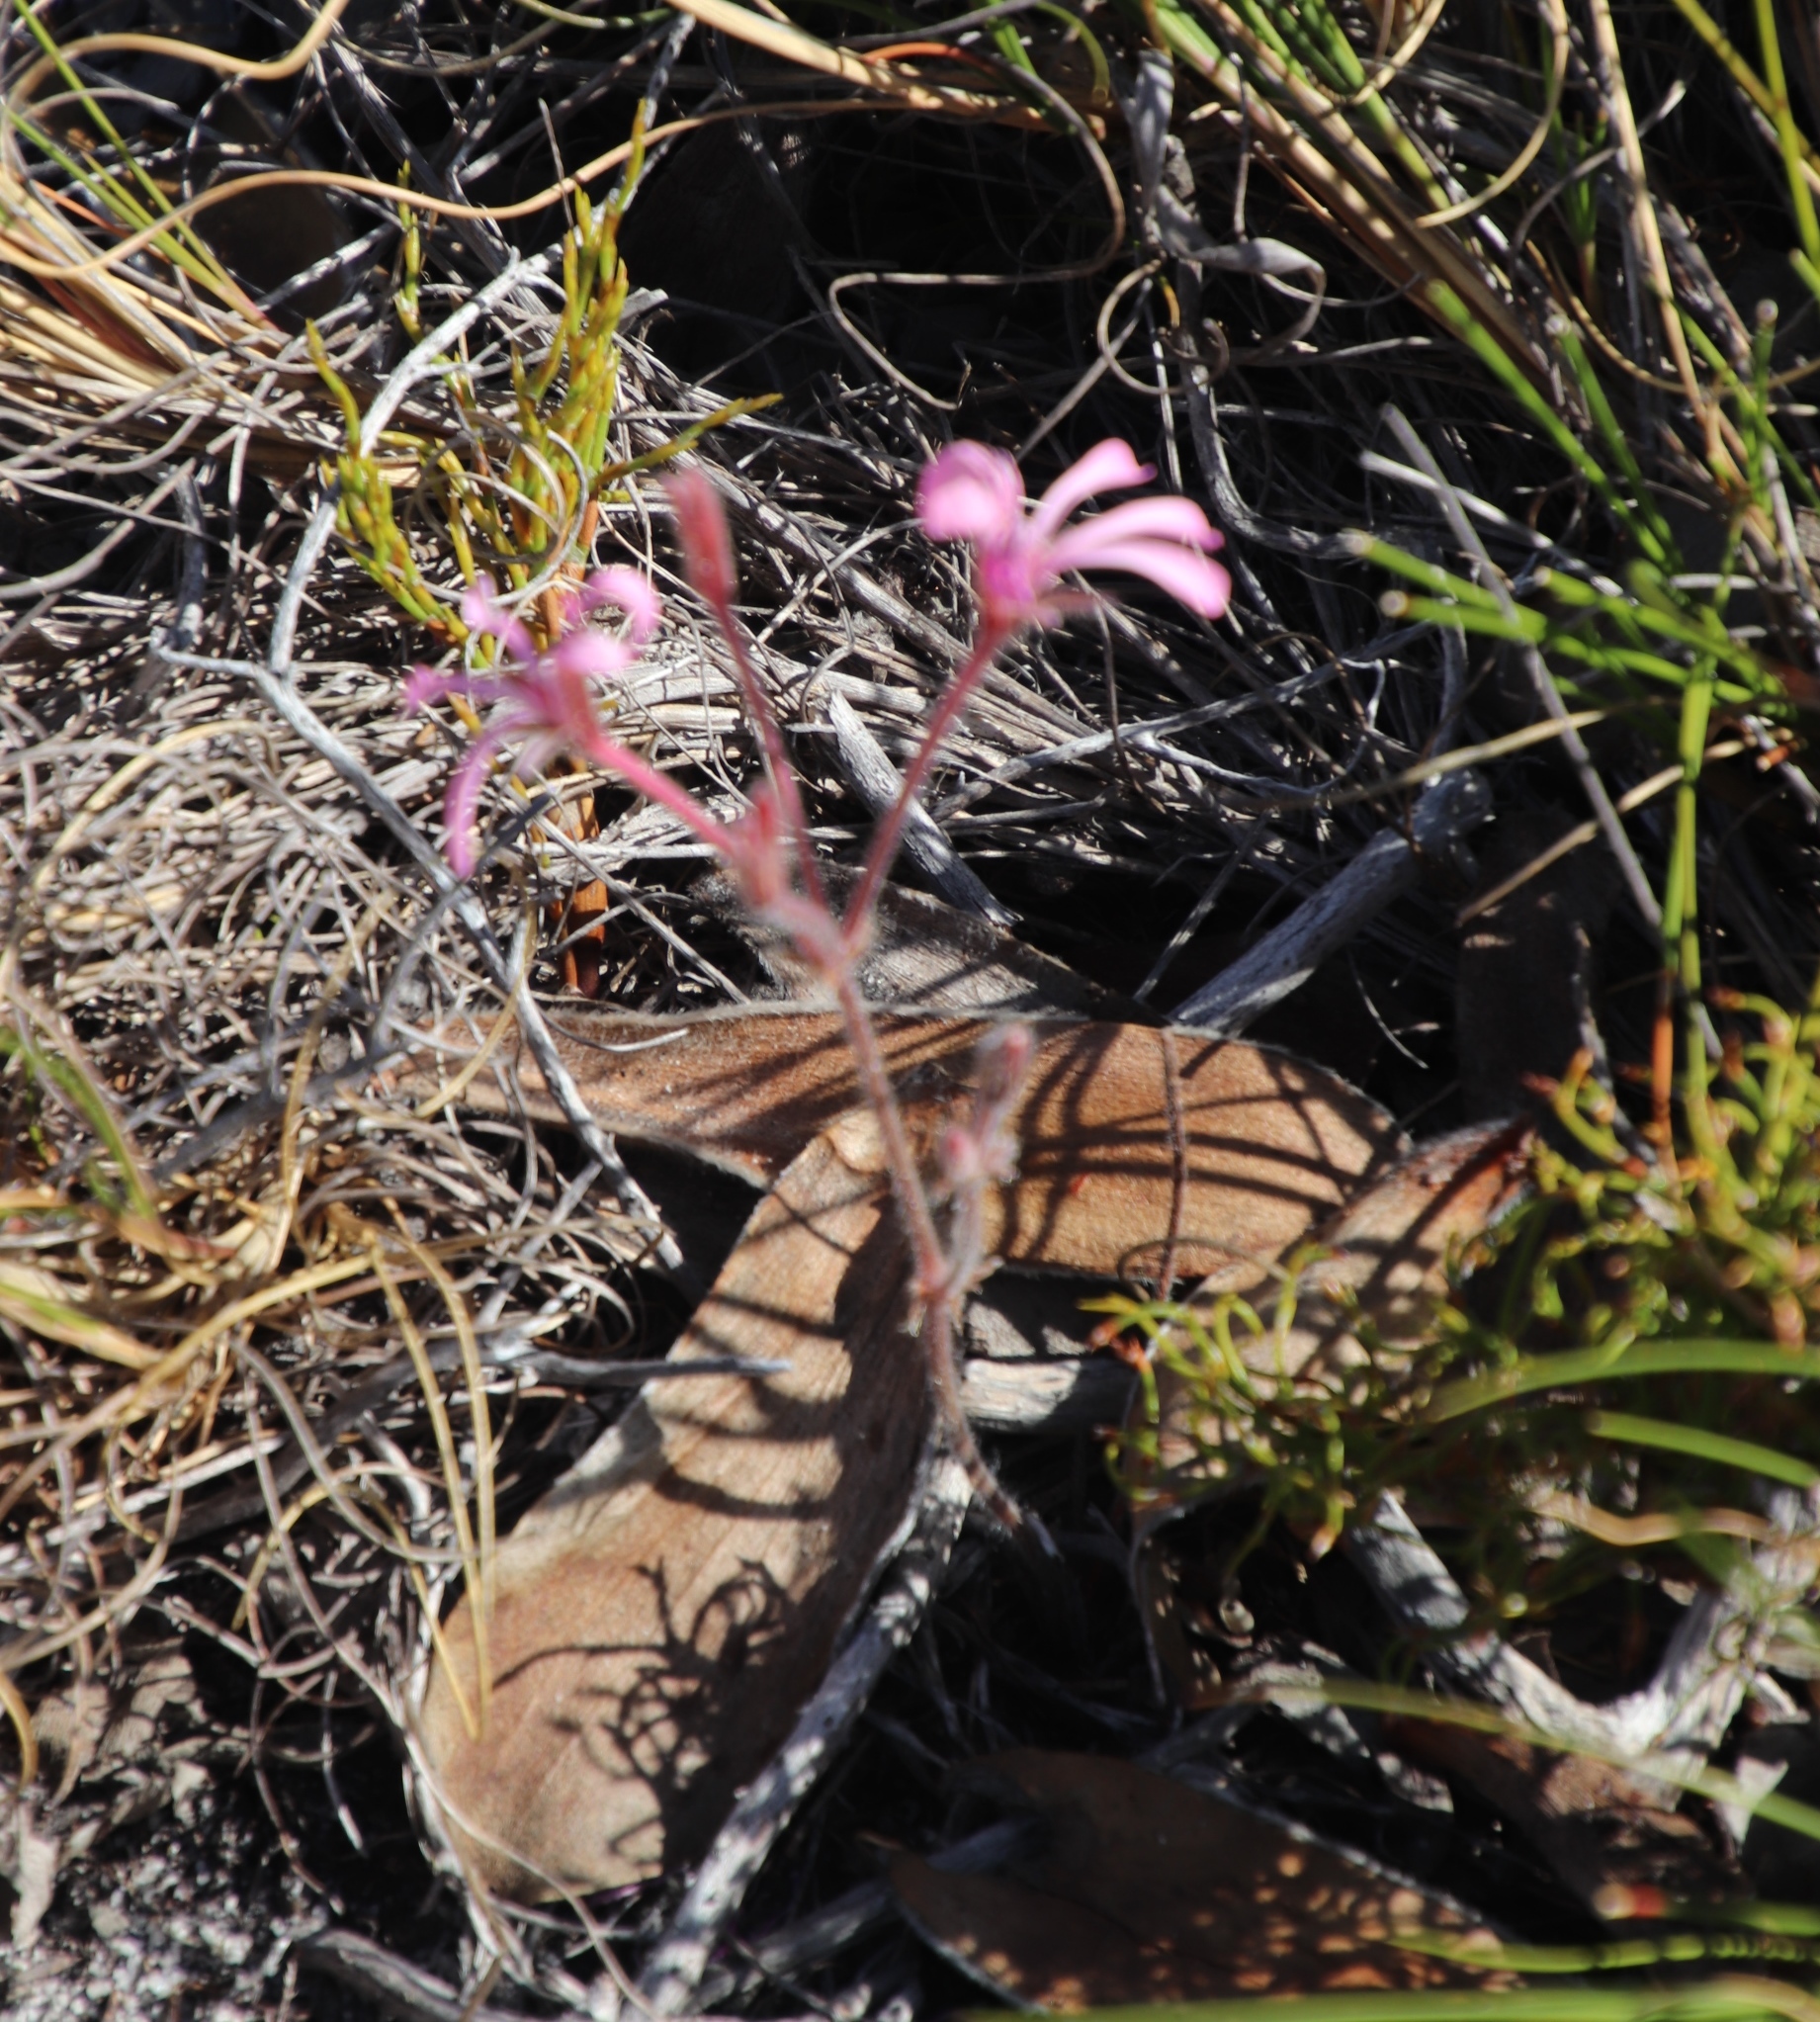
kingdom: Plantae
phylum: Tracheophyta
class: Magnoliopsida
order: Geraniales
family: Geraniaceae
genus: Pelargonium
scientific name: Pelargonium psammophilum
